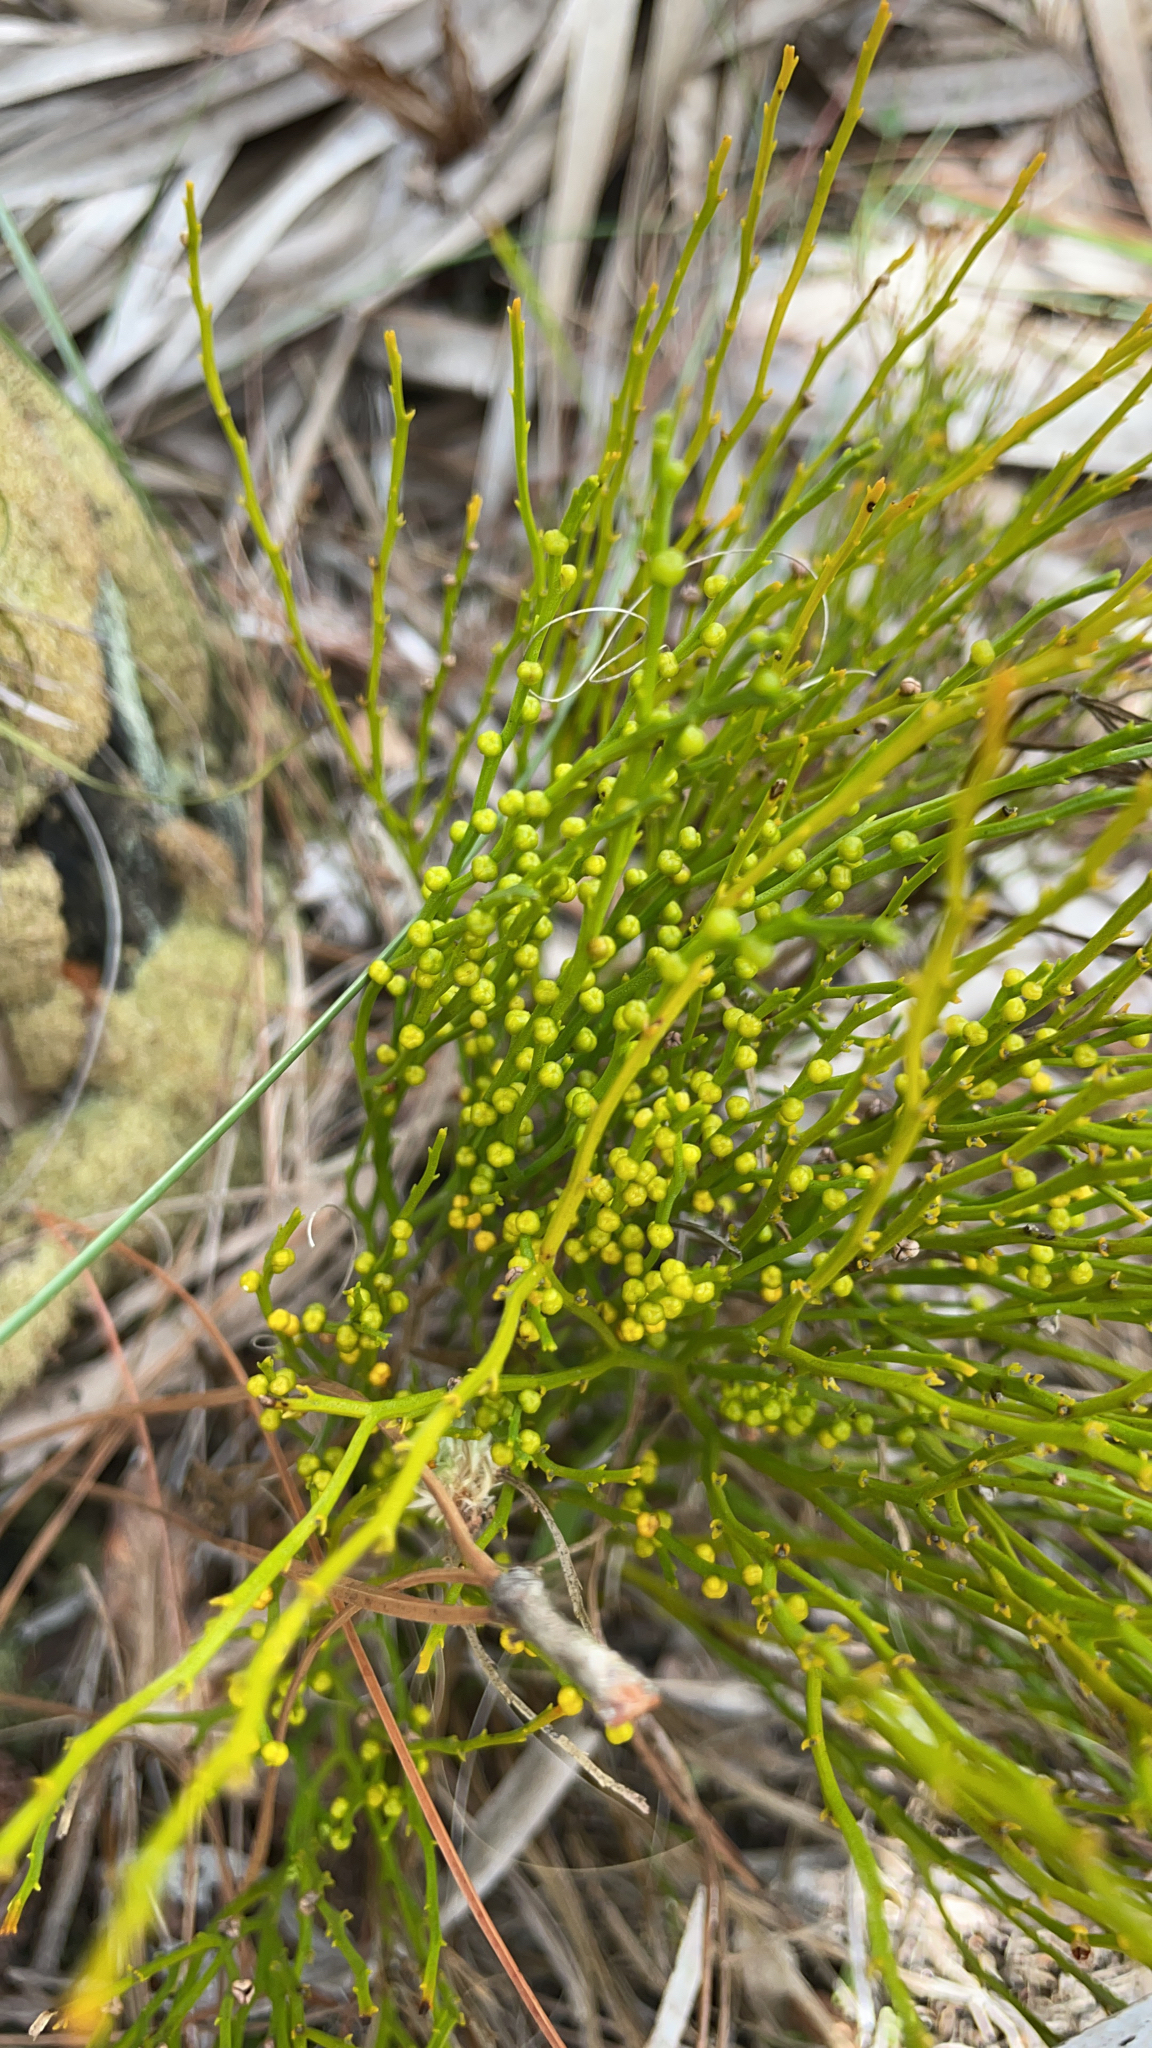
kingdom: Plantae
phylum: Tracheophyta
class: Polypodiopsida
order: Psilotales
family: Psilotaceae
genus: Psilotum
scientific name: Psilotum nudum
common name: Skeleton fork fern
